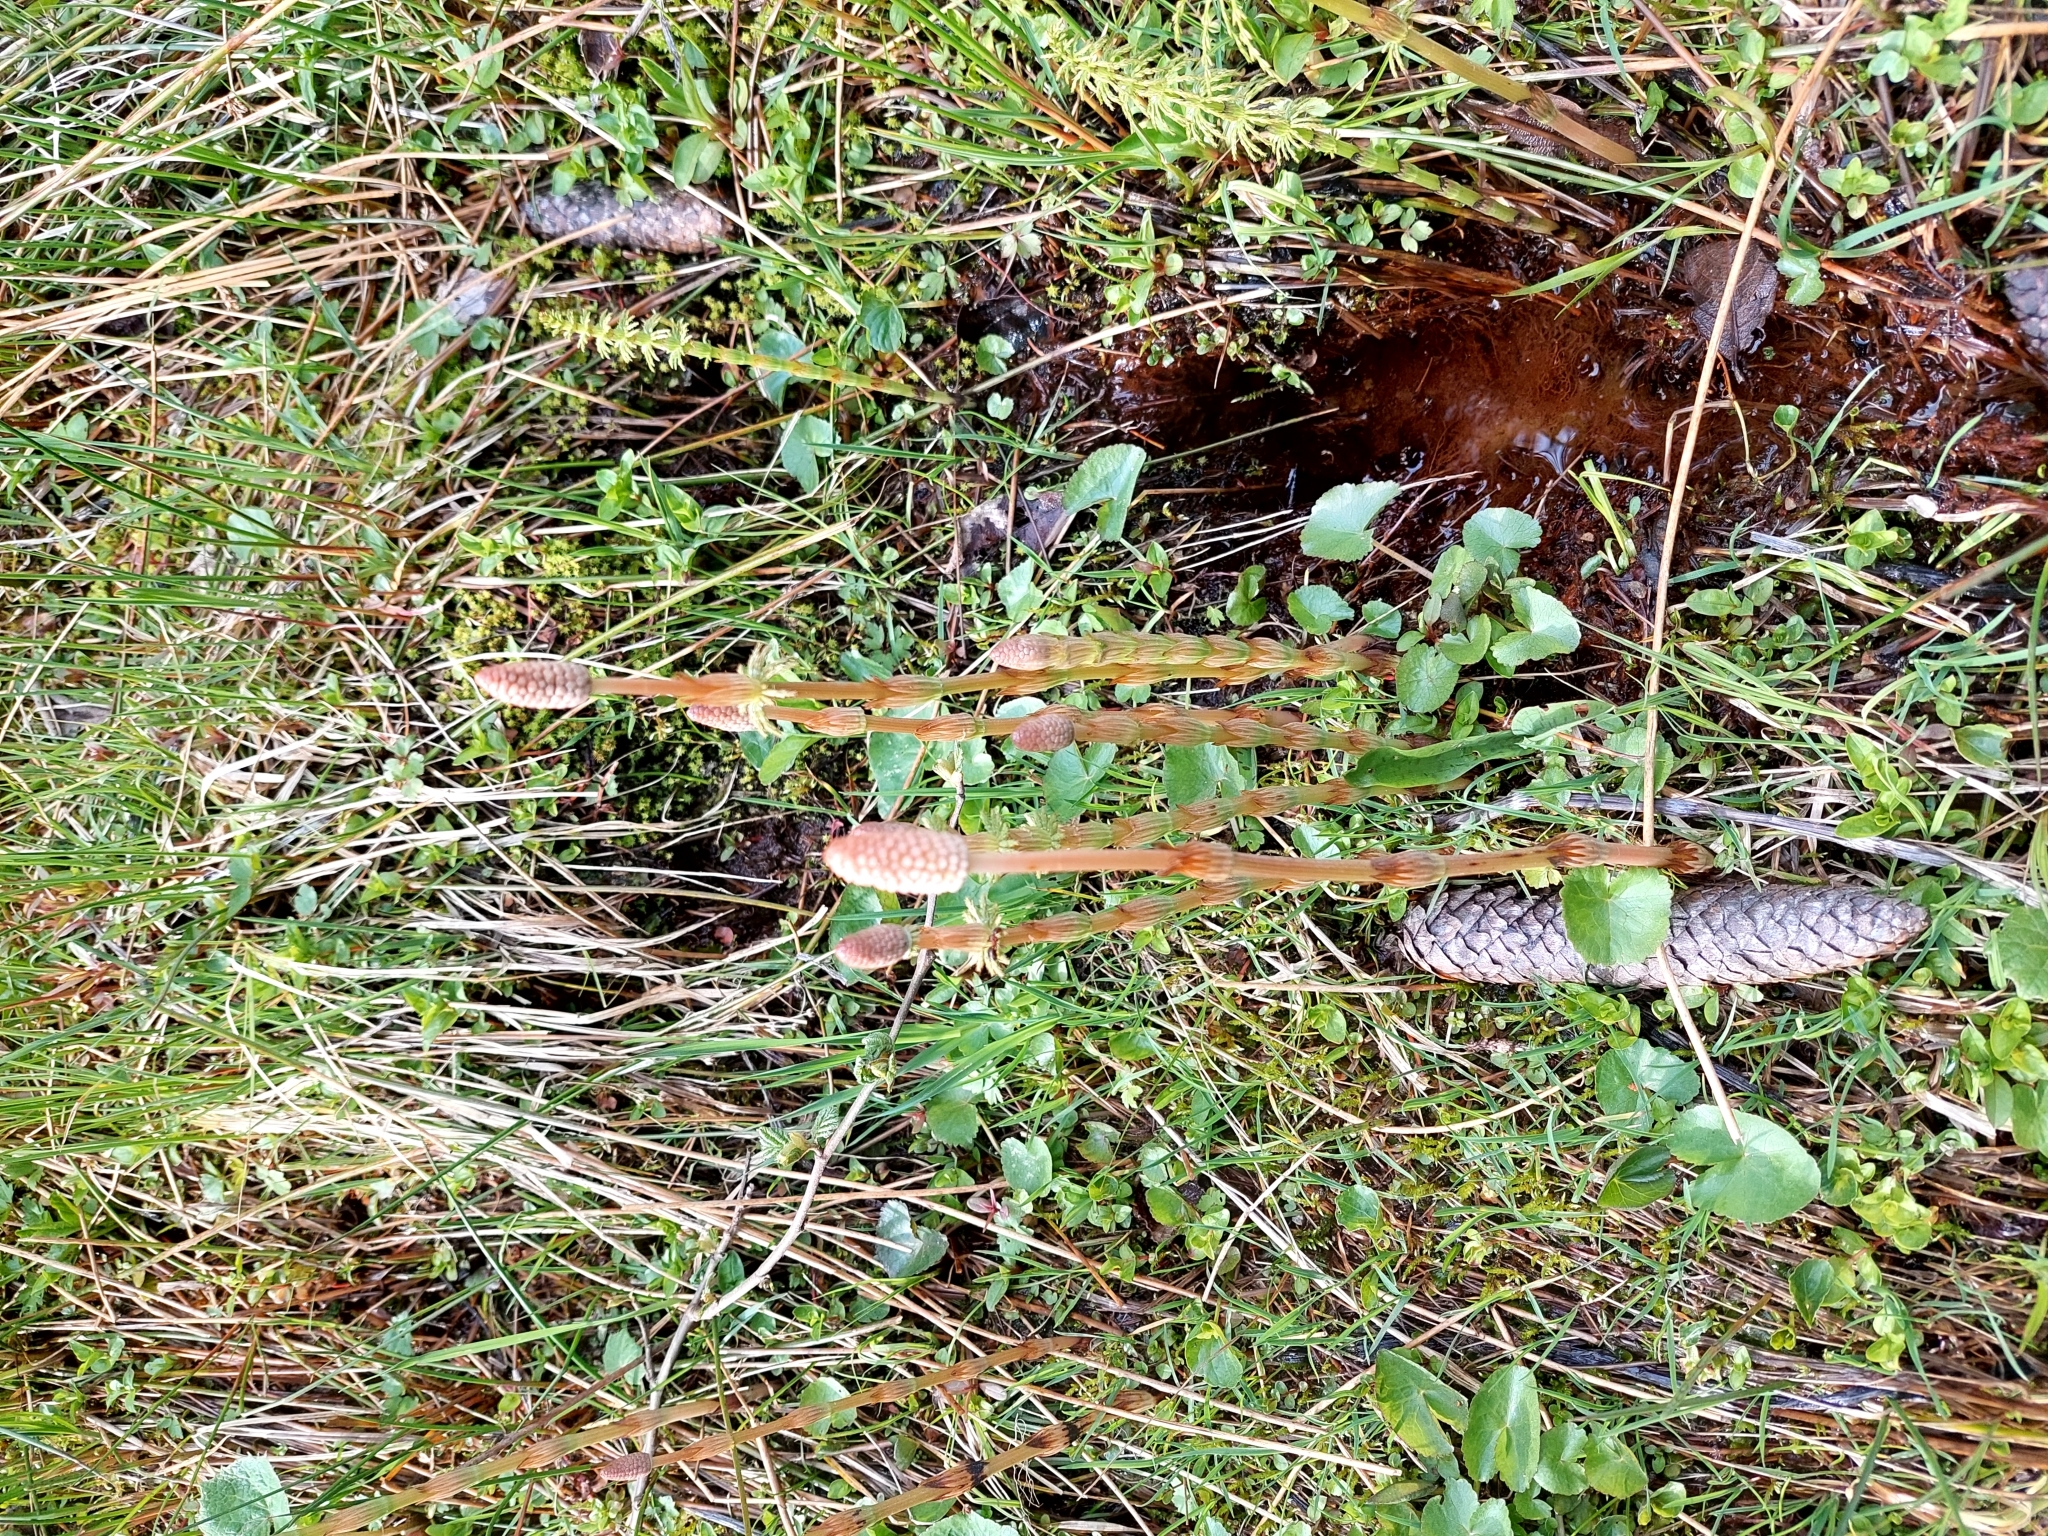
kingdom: Plantae
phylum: Tracheophyta
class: Polypodiopsida
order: Equisetales
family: Equisetaceae
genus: Equisetum
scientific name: Equisetum sylvaticum
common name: Wood horsetail
